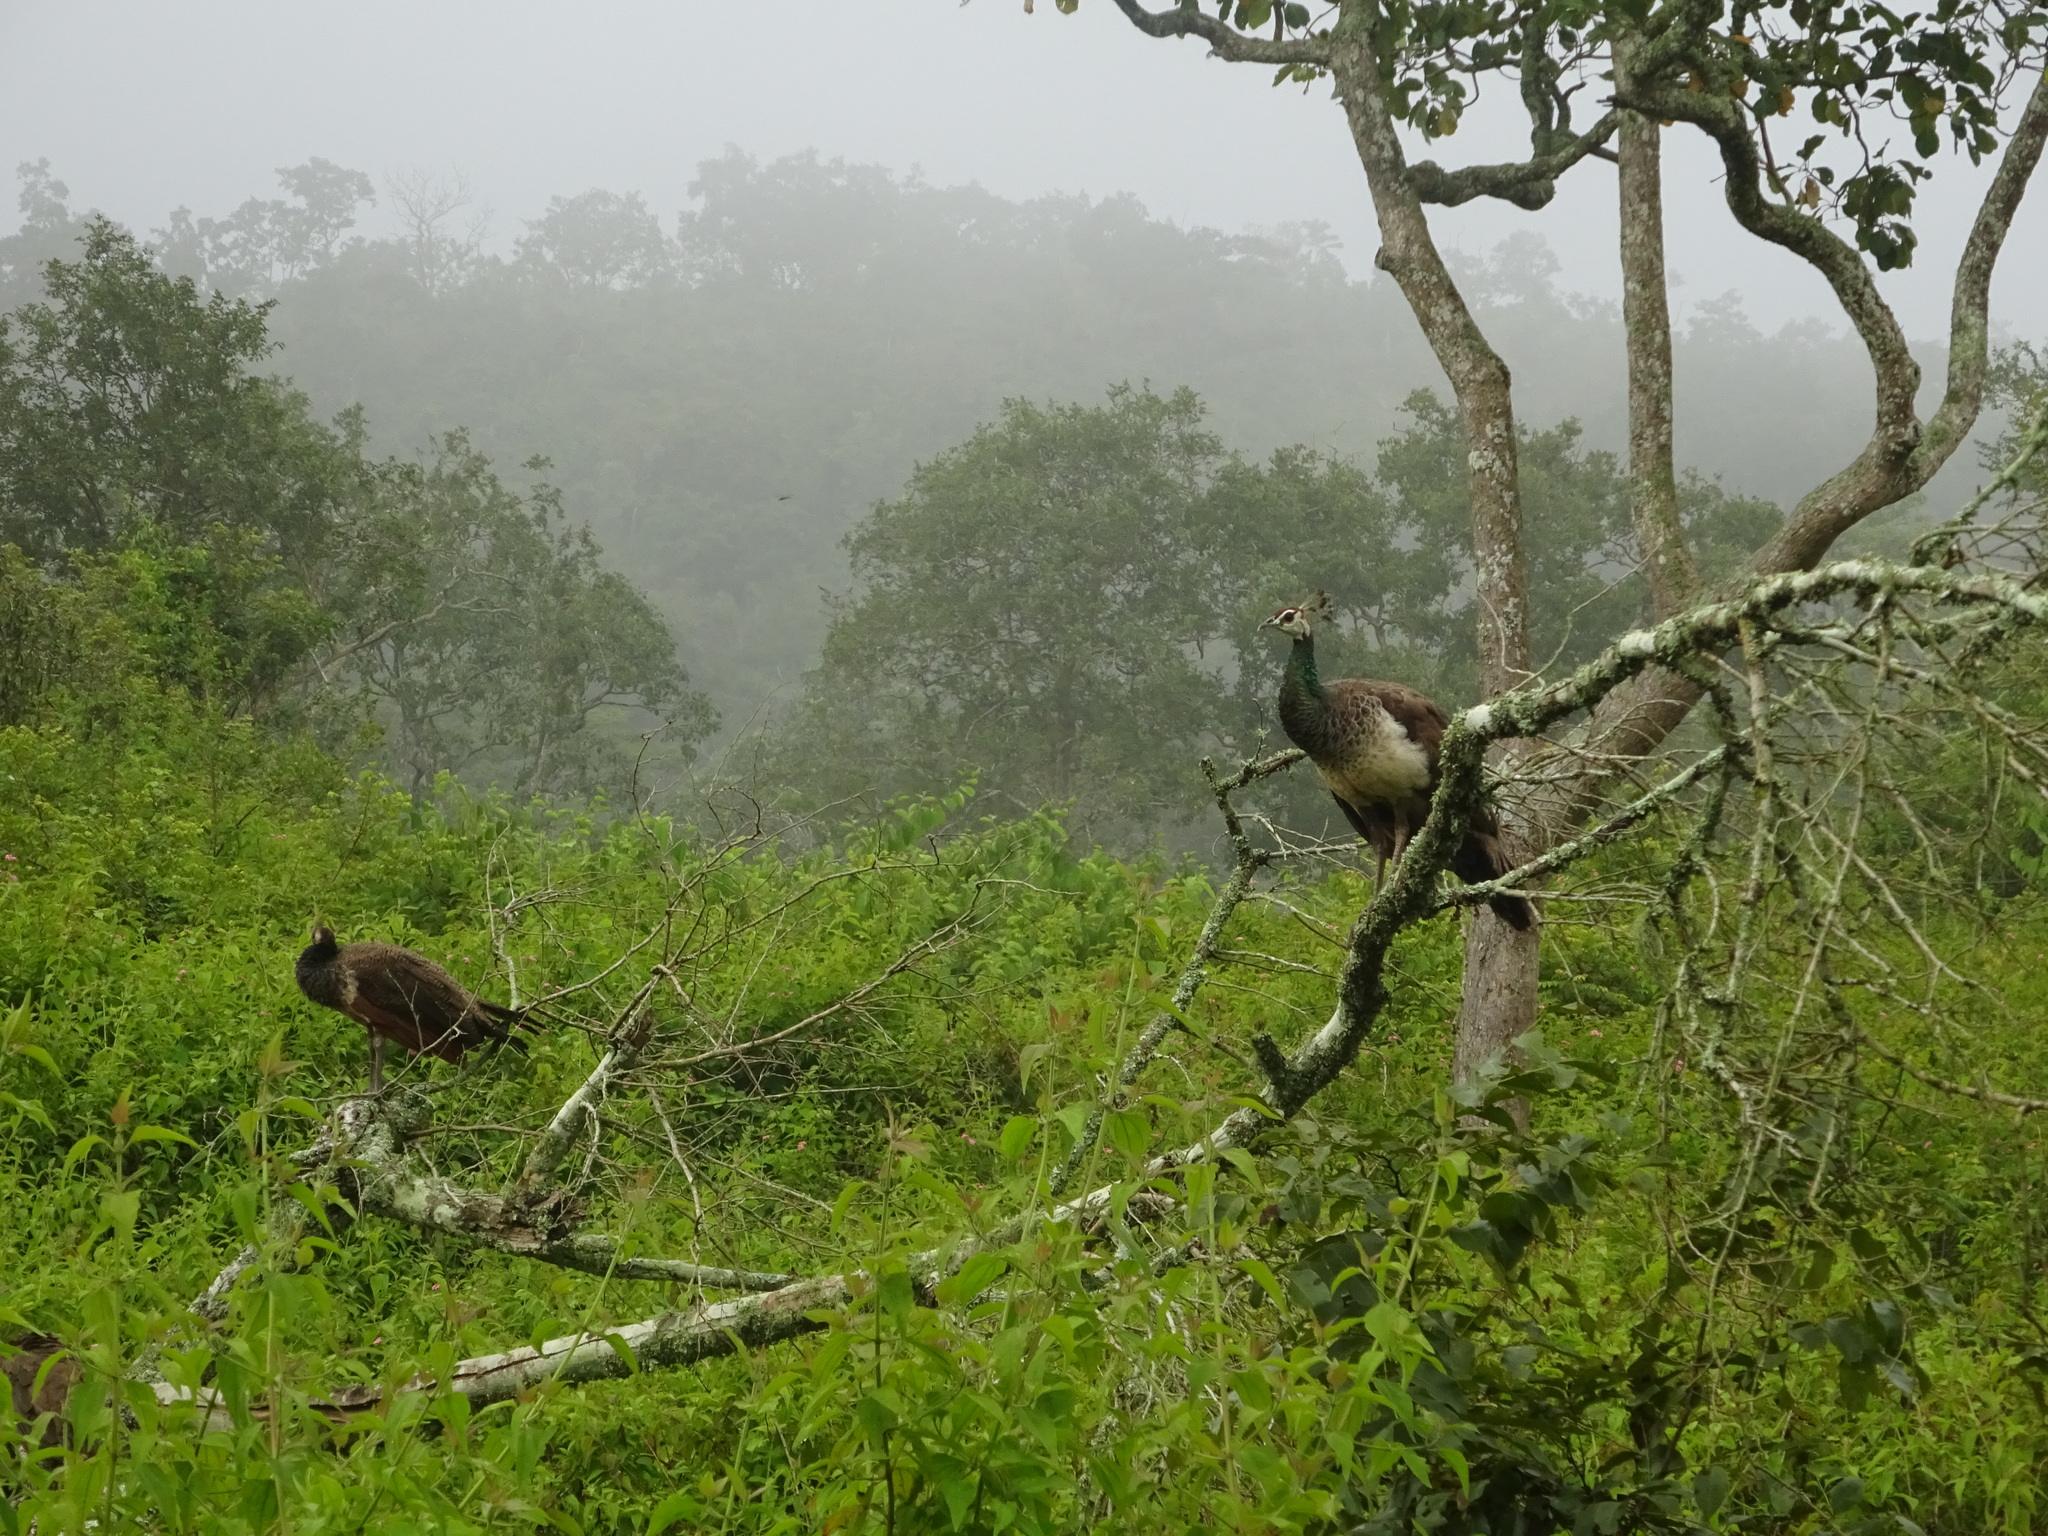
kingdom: Animalia
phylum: Chordata
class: Aves
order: Galliformes
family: Phasianidae
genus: Pavo
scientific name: Pavo cristatus
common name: Indian peafowl
